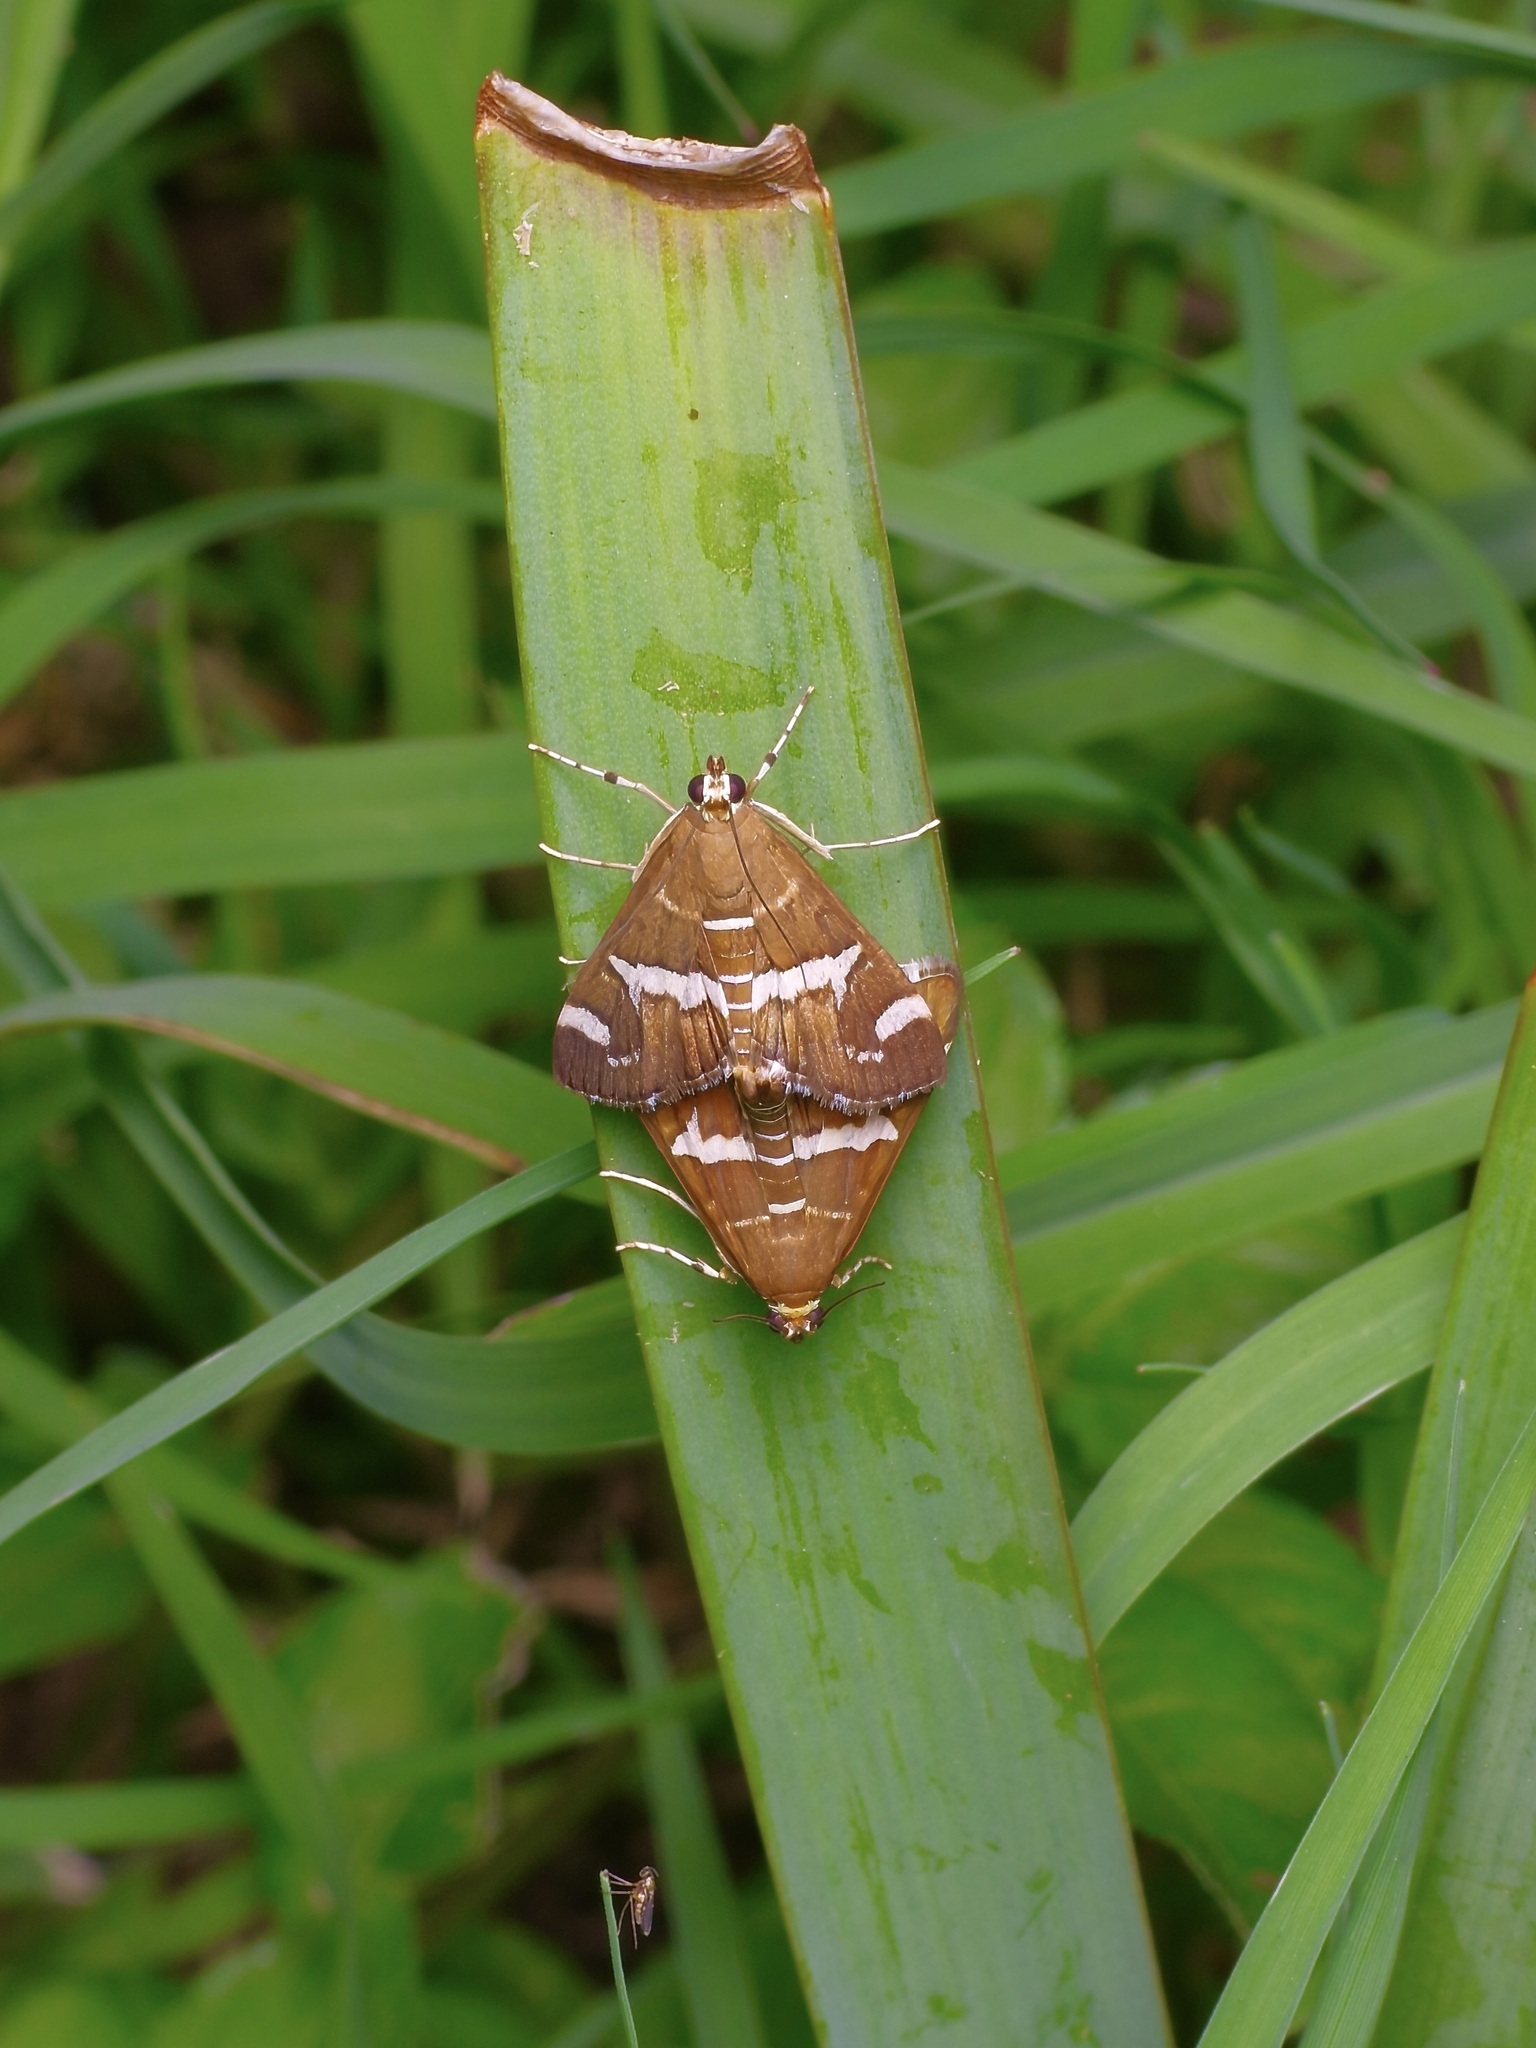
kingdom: Animalia
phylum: Arthropoda
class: Insecta
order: Lepidoptera
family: Crambidae
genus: Spoladea
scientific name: Spoladea recurvalis
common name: Beet webworm moth
